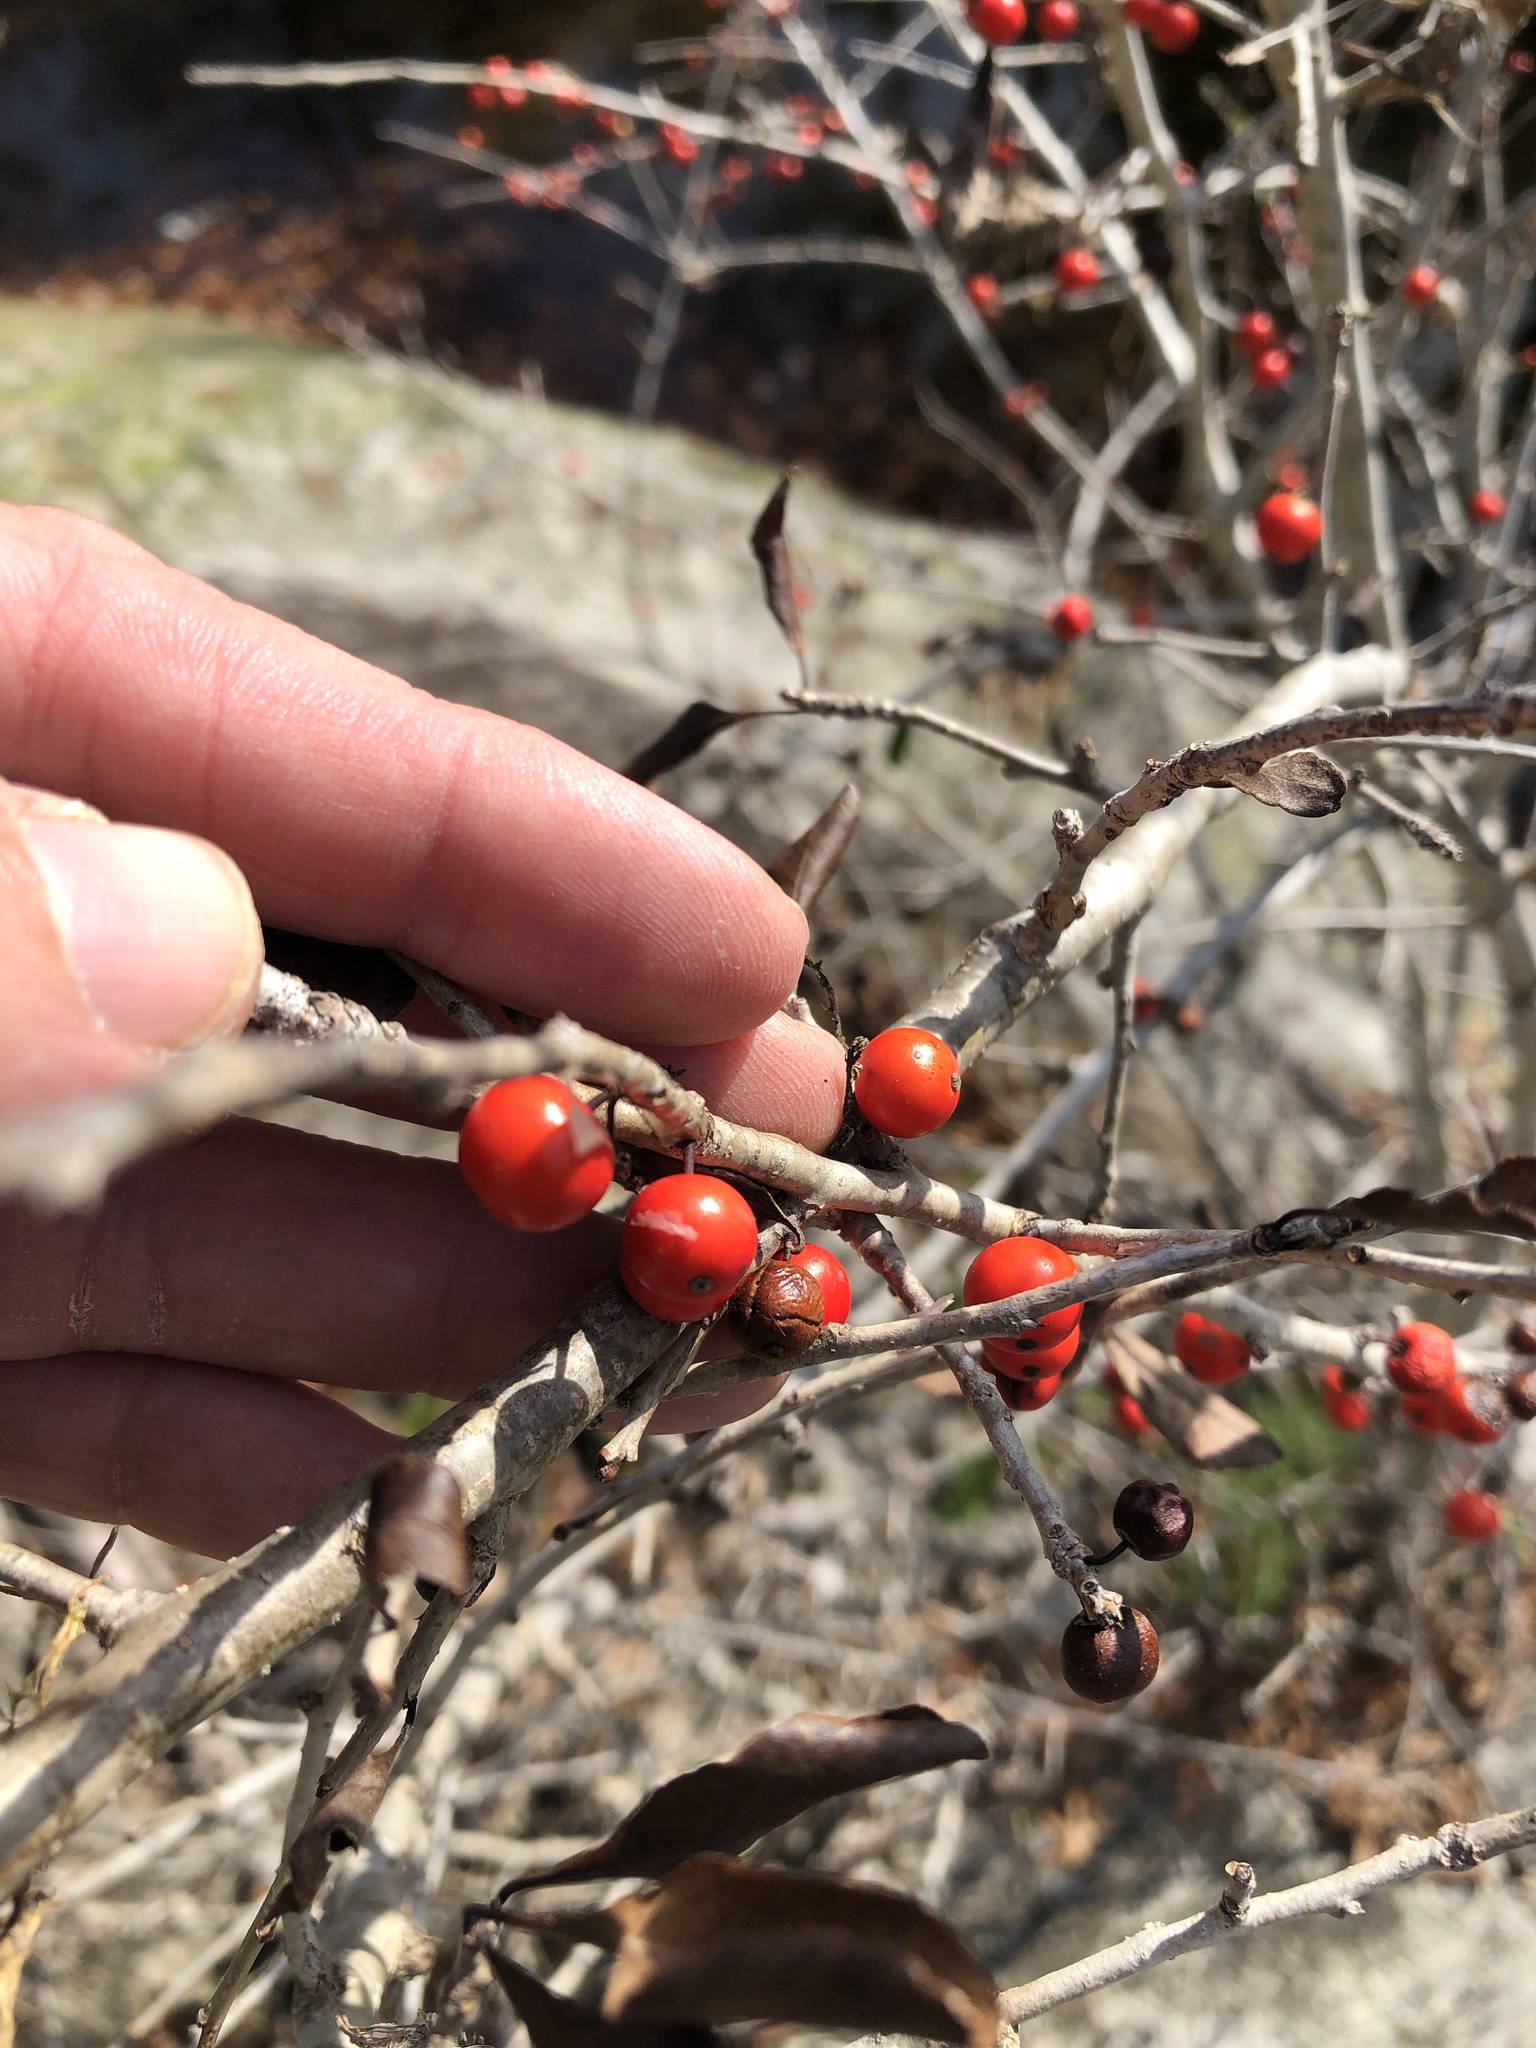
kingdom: Plantae
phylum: Tracheophyta
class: Magnoliopsida
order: Aquifoliales
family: Aquifoliaceae
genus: Ilex
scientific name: Ilex decidua
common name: Possum-haw
